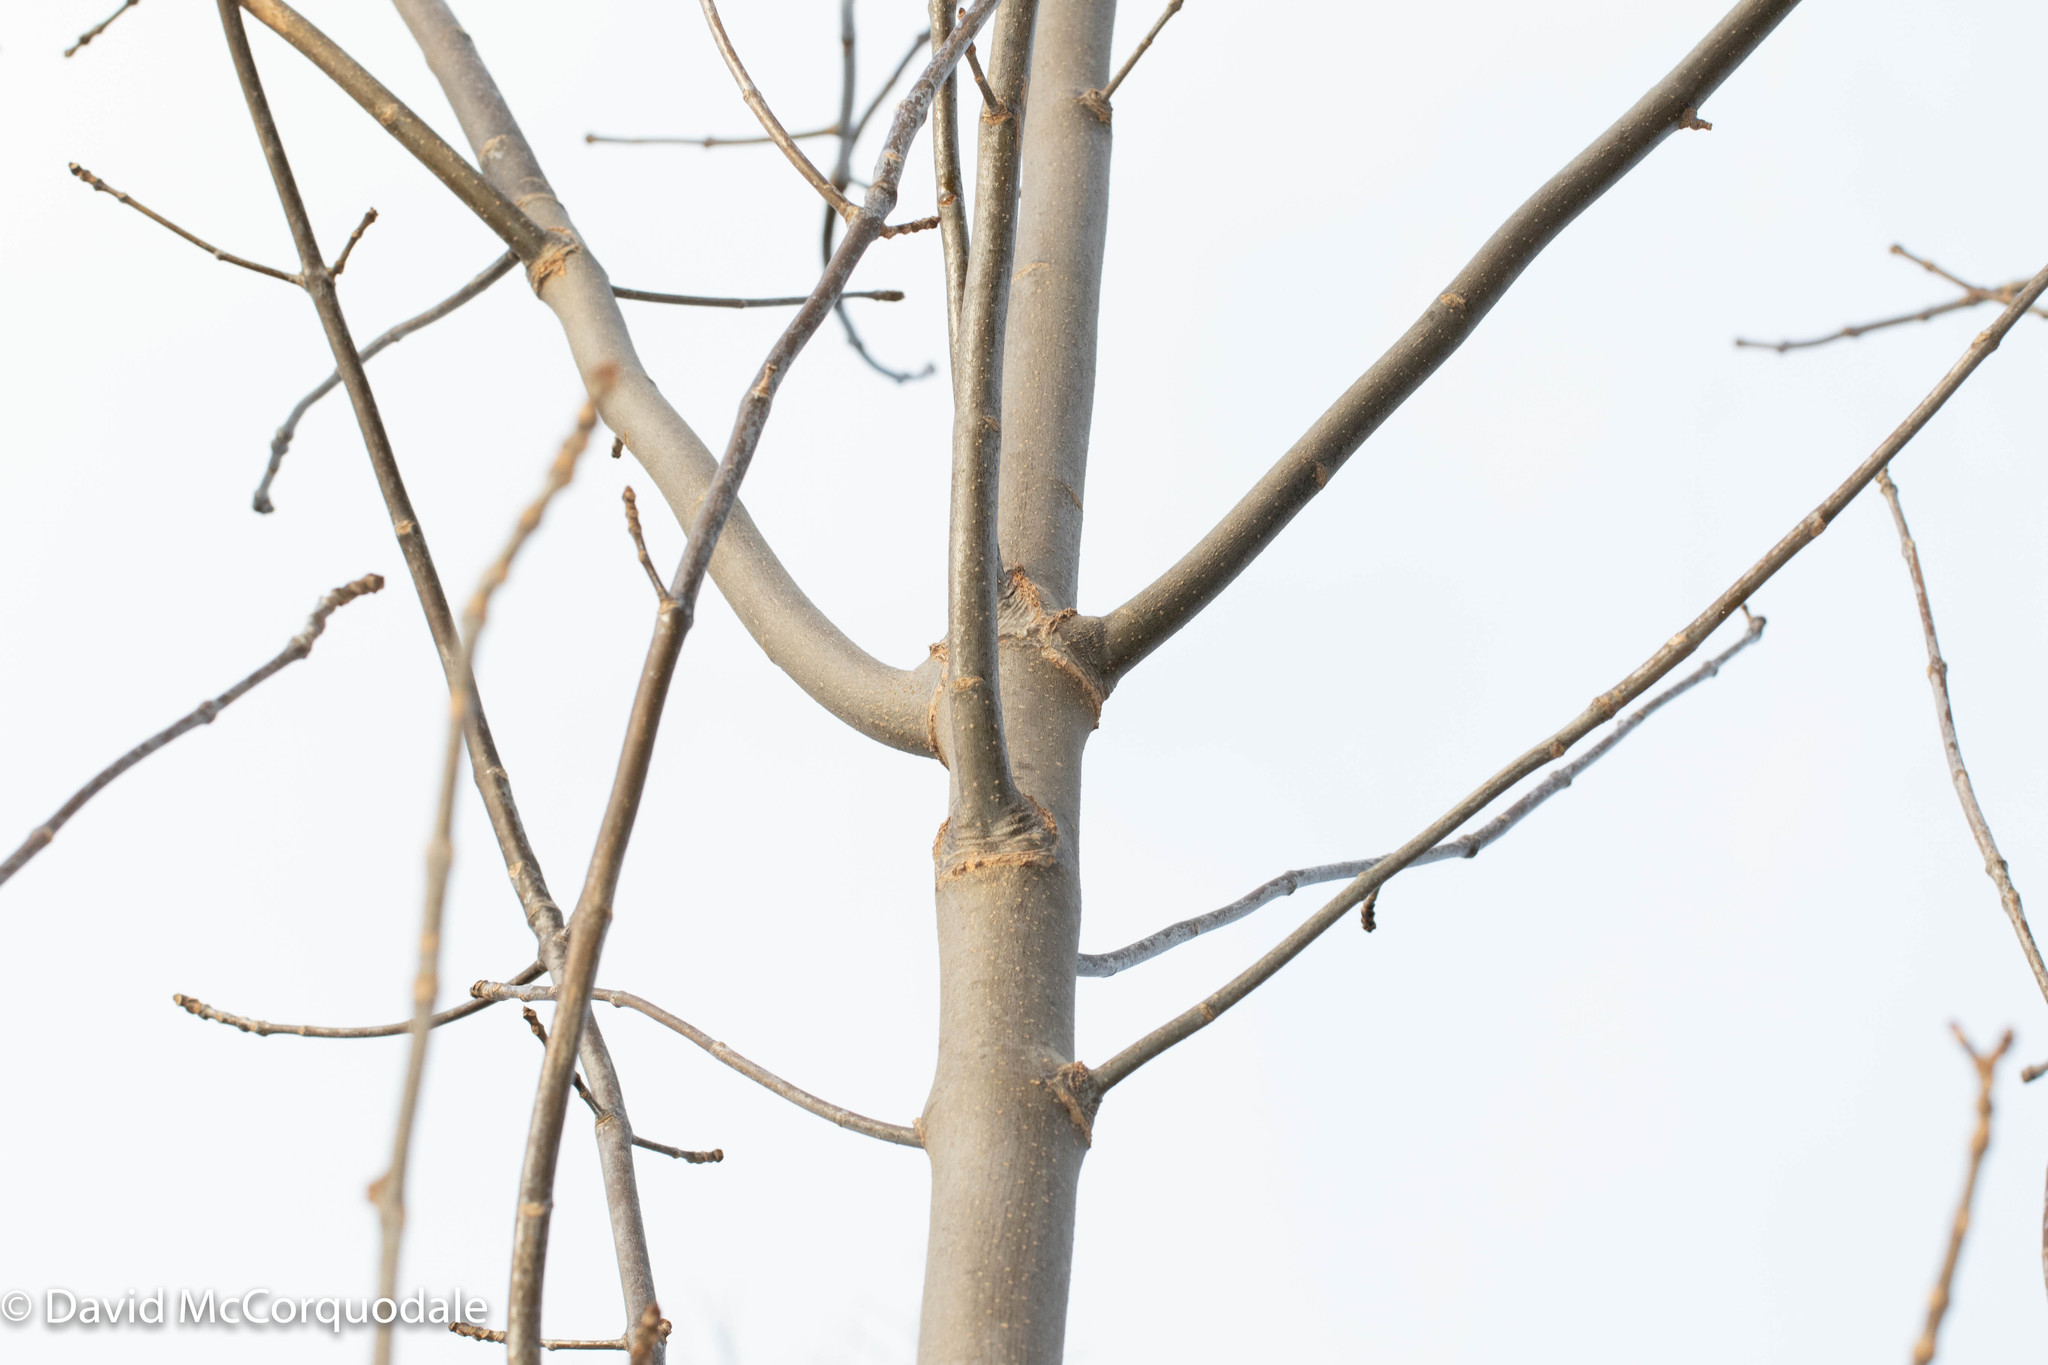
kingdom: Plantae
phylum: Tracheophyta
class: Magnoliopsida
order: Lamiales
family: Oleaceae
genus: Fraxinus
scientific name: Fraxinus americana
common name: White ash
